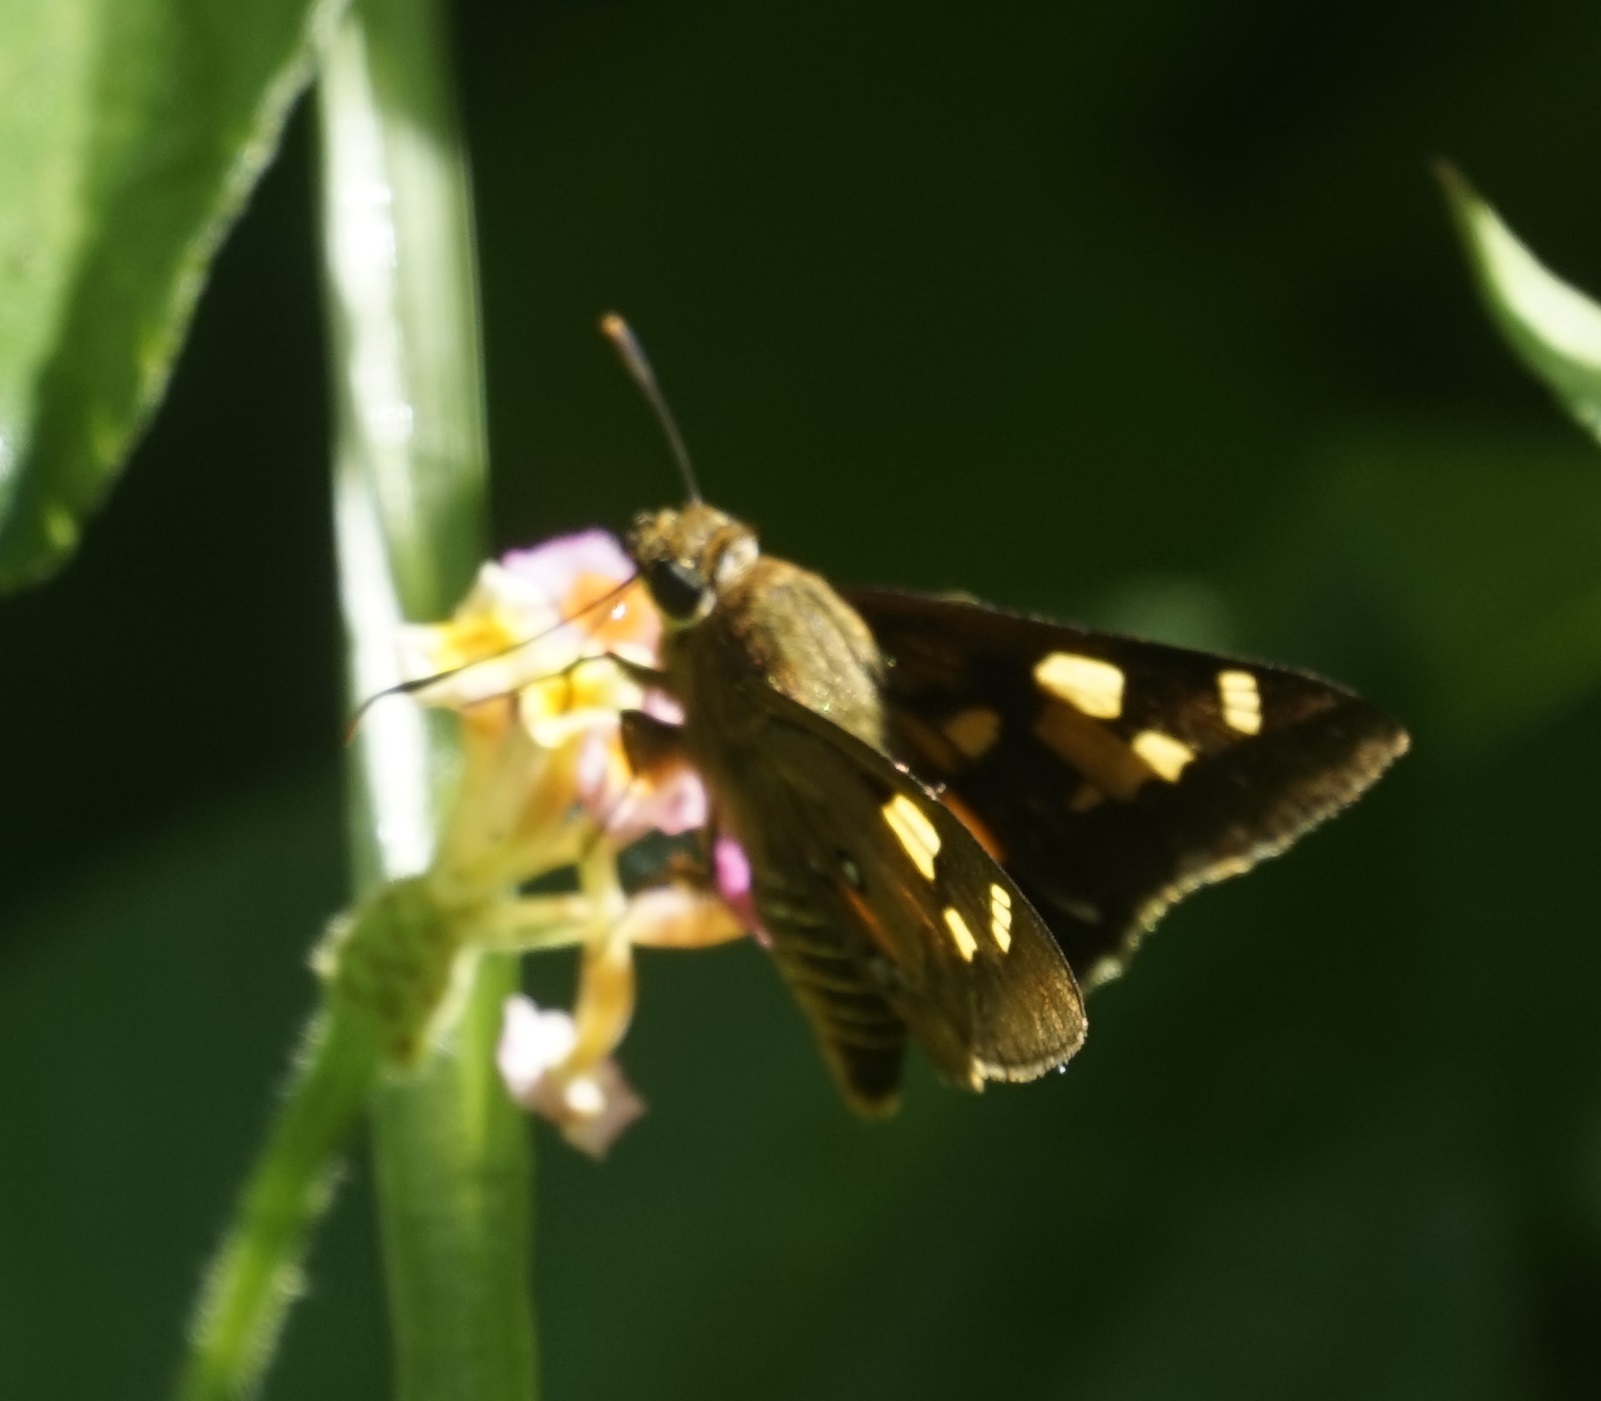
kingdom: Animalia
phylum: Arthropoda
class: Insecta
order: Lepidoptera
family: Hesperiidae
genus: Trapezites
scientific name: Trapezites symmomus
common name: Splendid ochre
